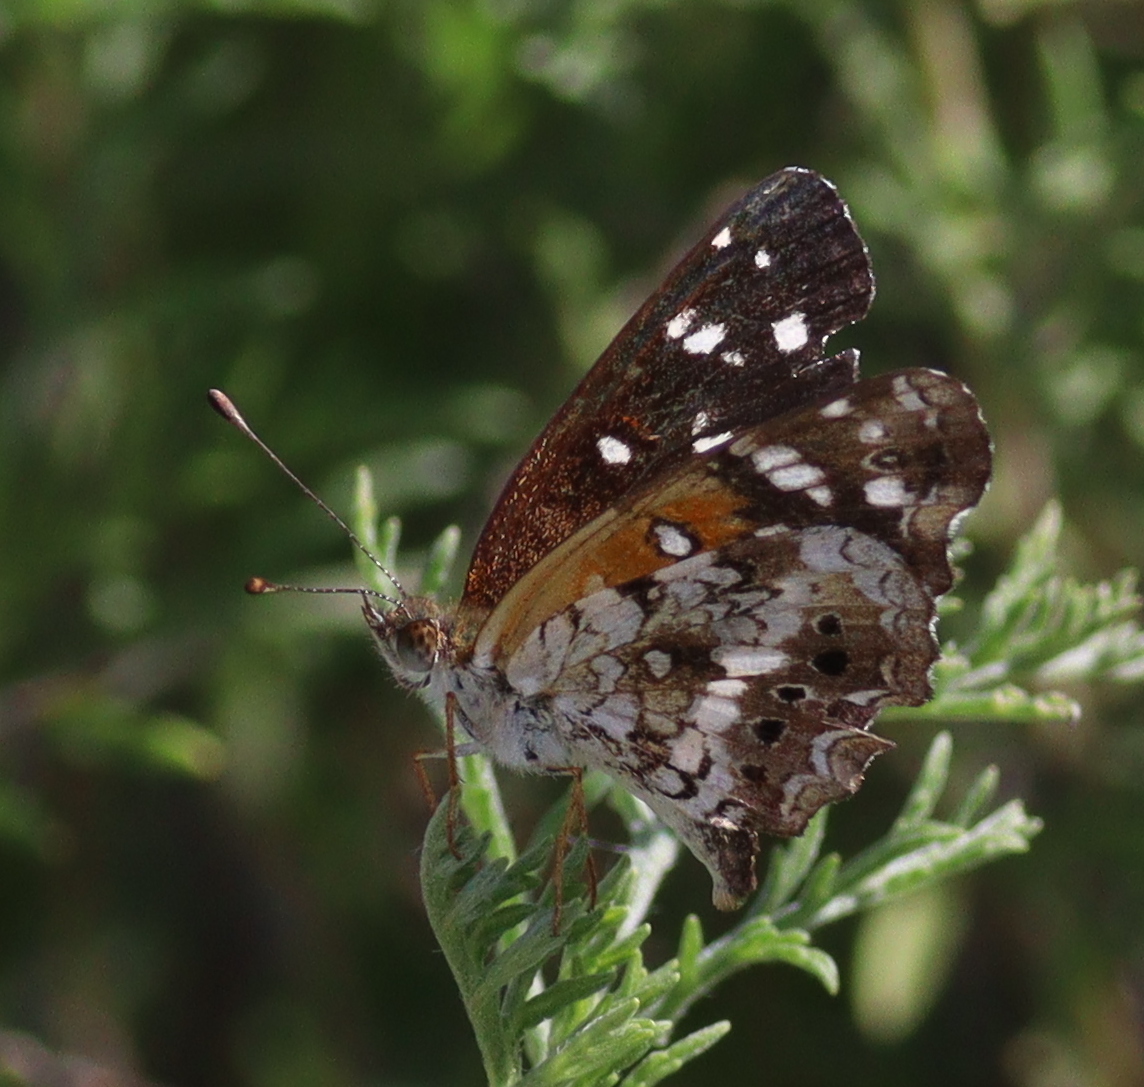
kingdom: Animalia
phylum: Arthropoda
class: Insecta
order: Lepidoptera
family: Nymphalidae
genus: Ortilia
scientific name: Ortilia ithra
